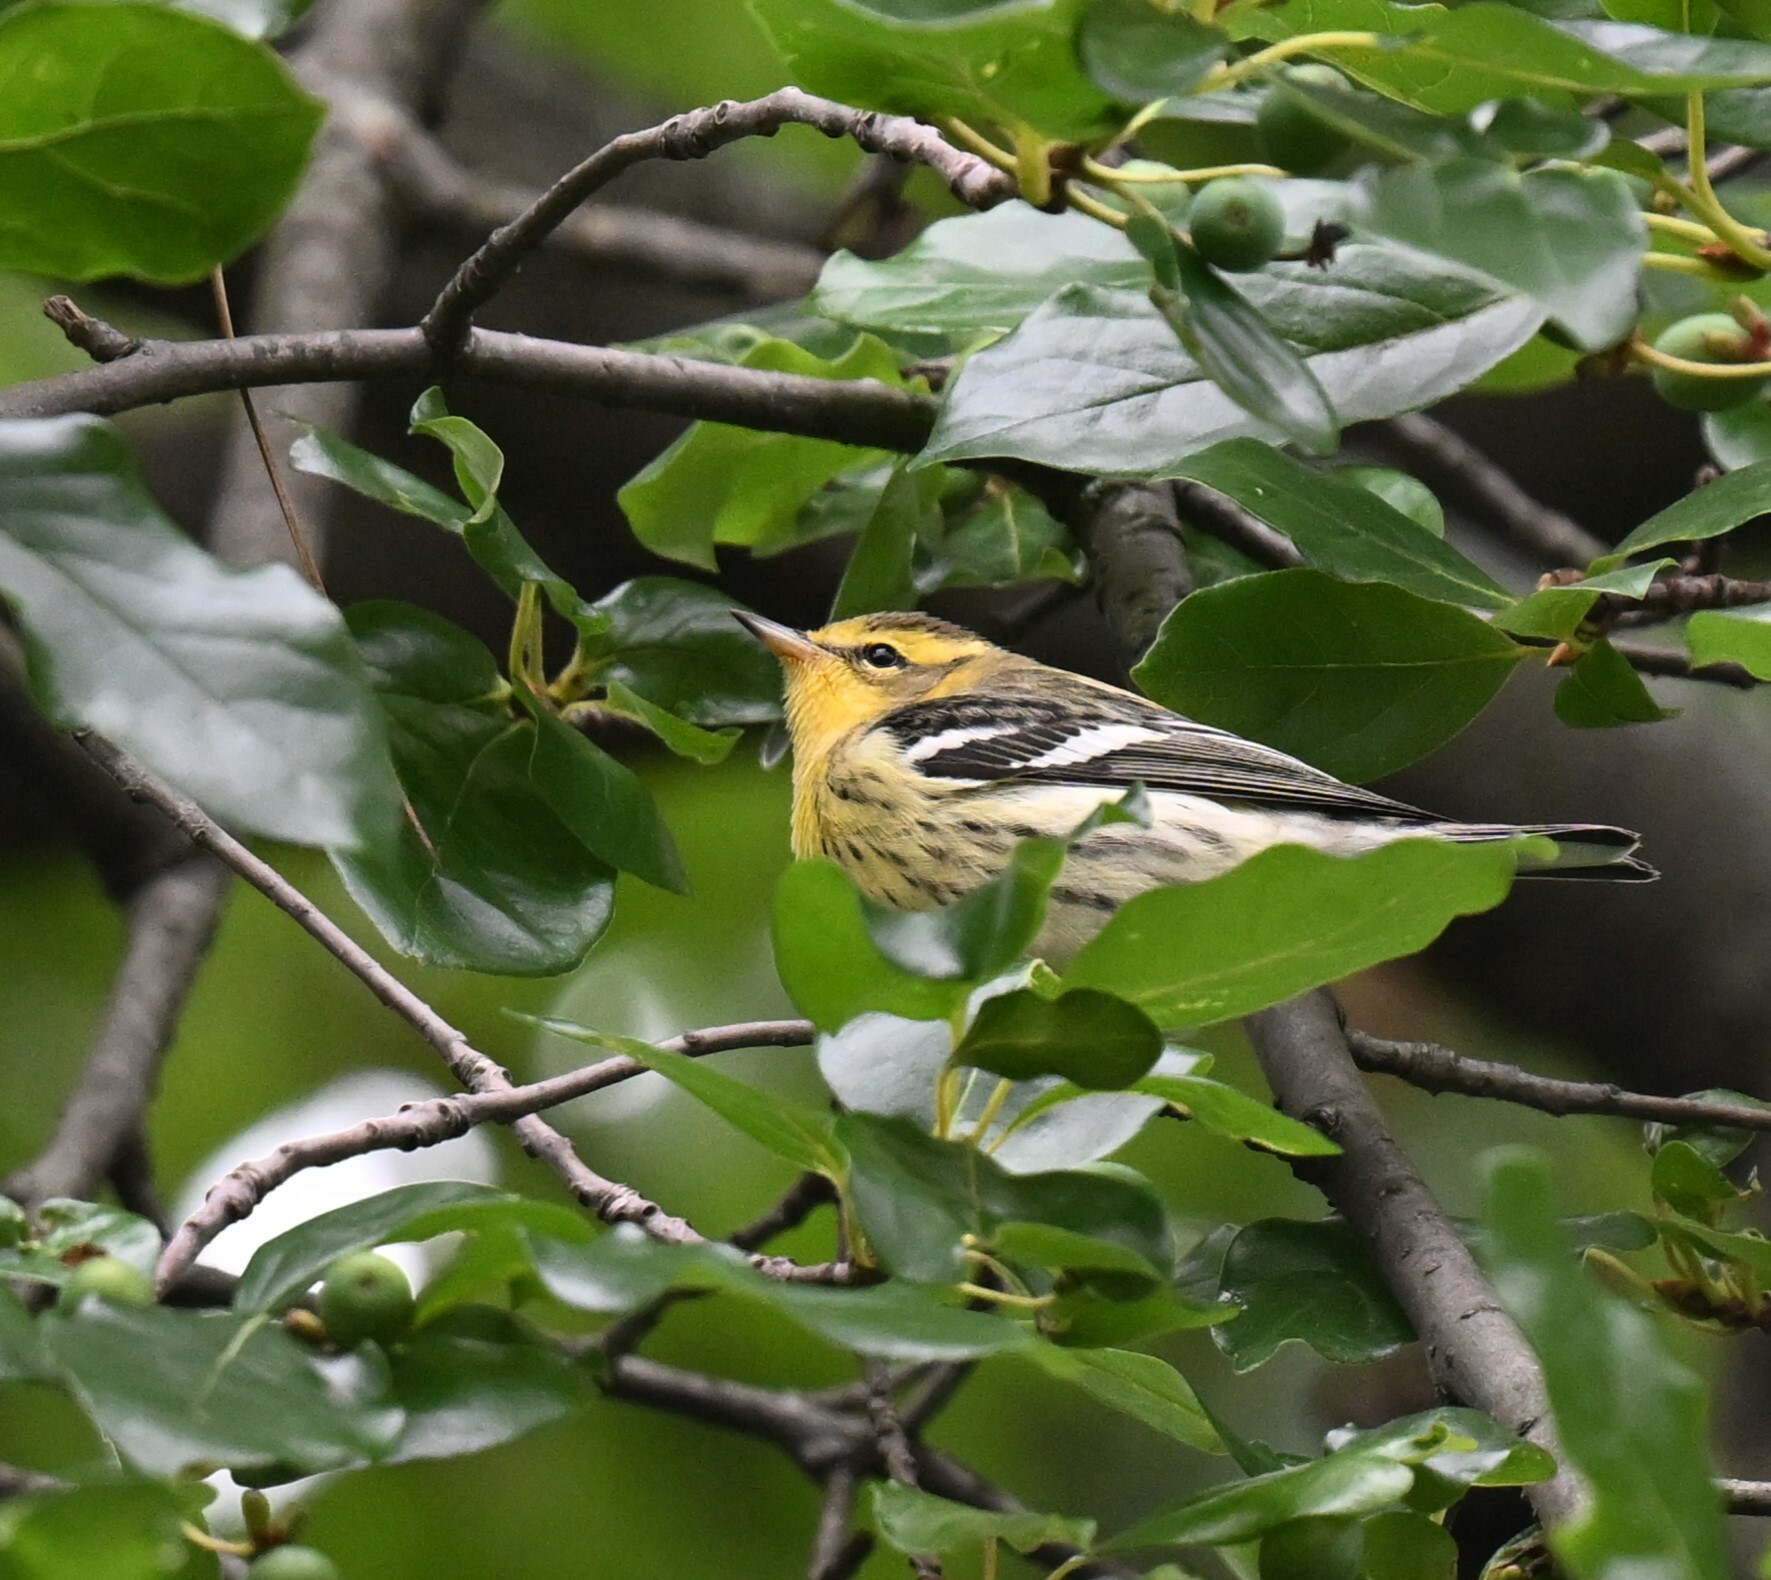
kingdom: Animalia
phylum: Chordata
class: Aves
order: Passeriformes
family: Parulidae
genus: Setophaga
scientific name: Setophaga fusca
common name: Blackburnian warbler
